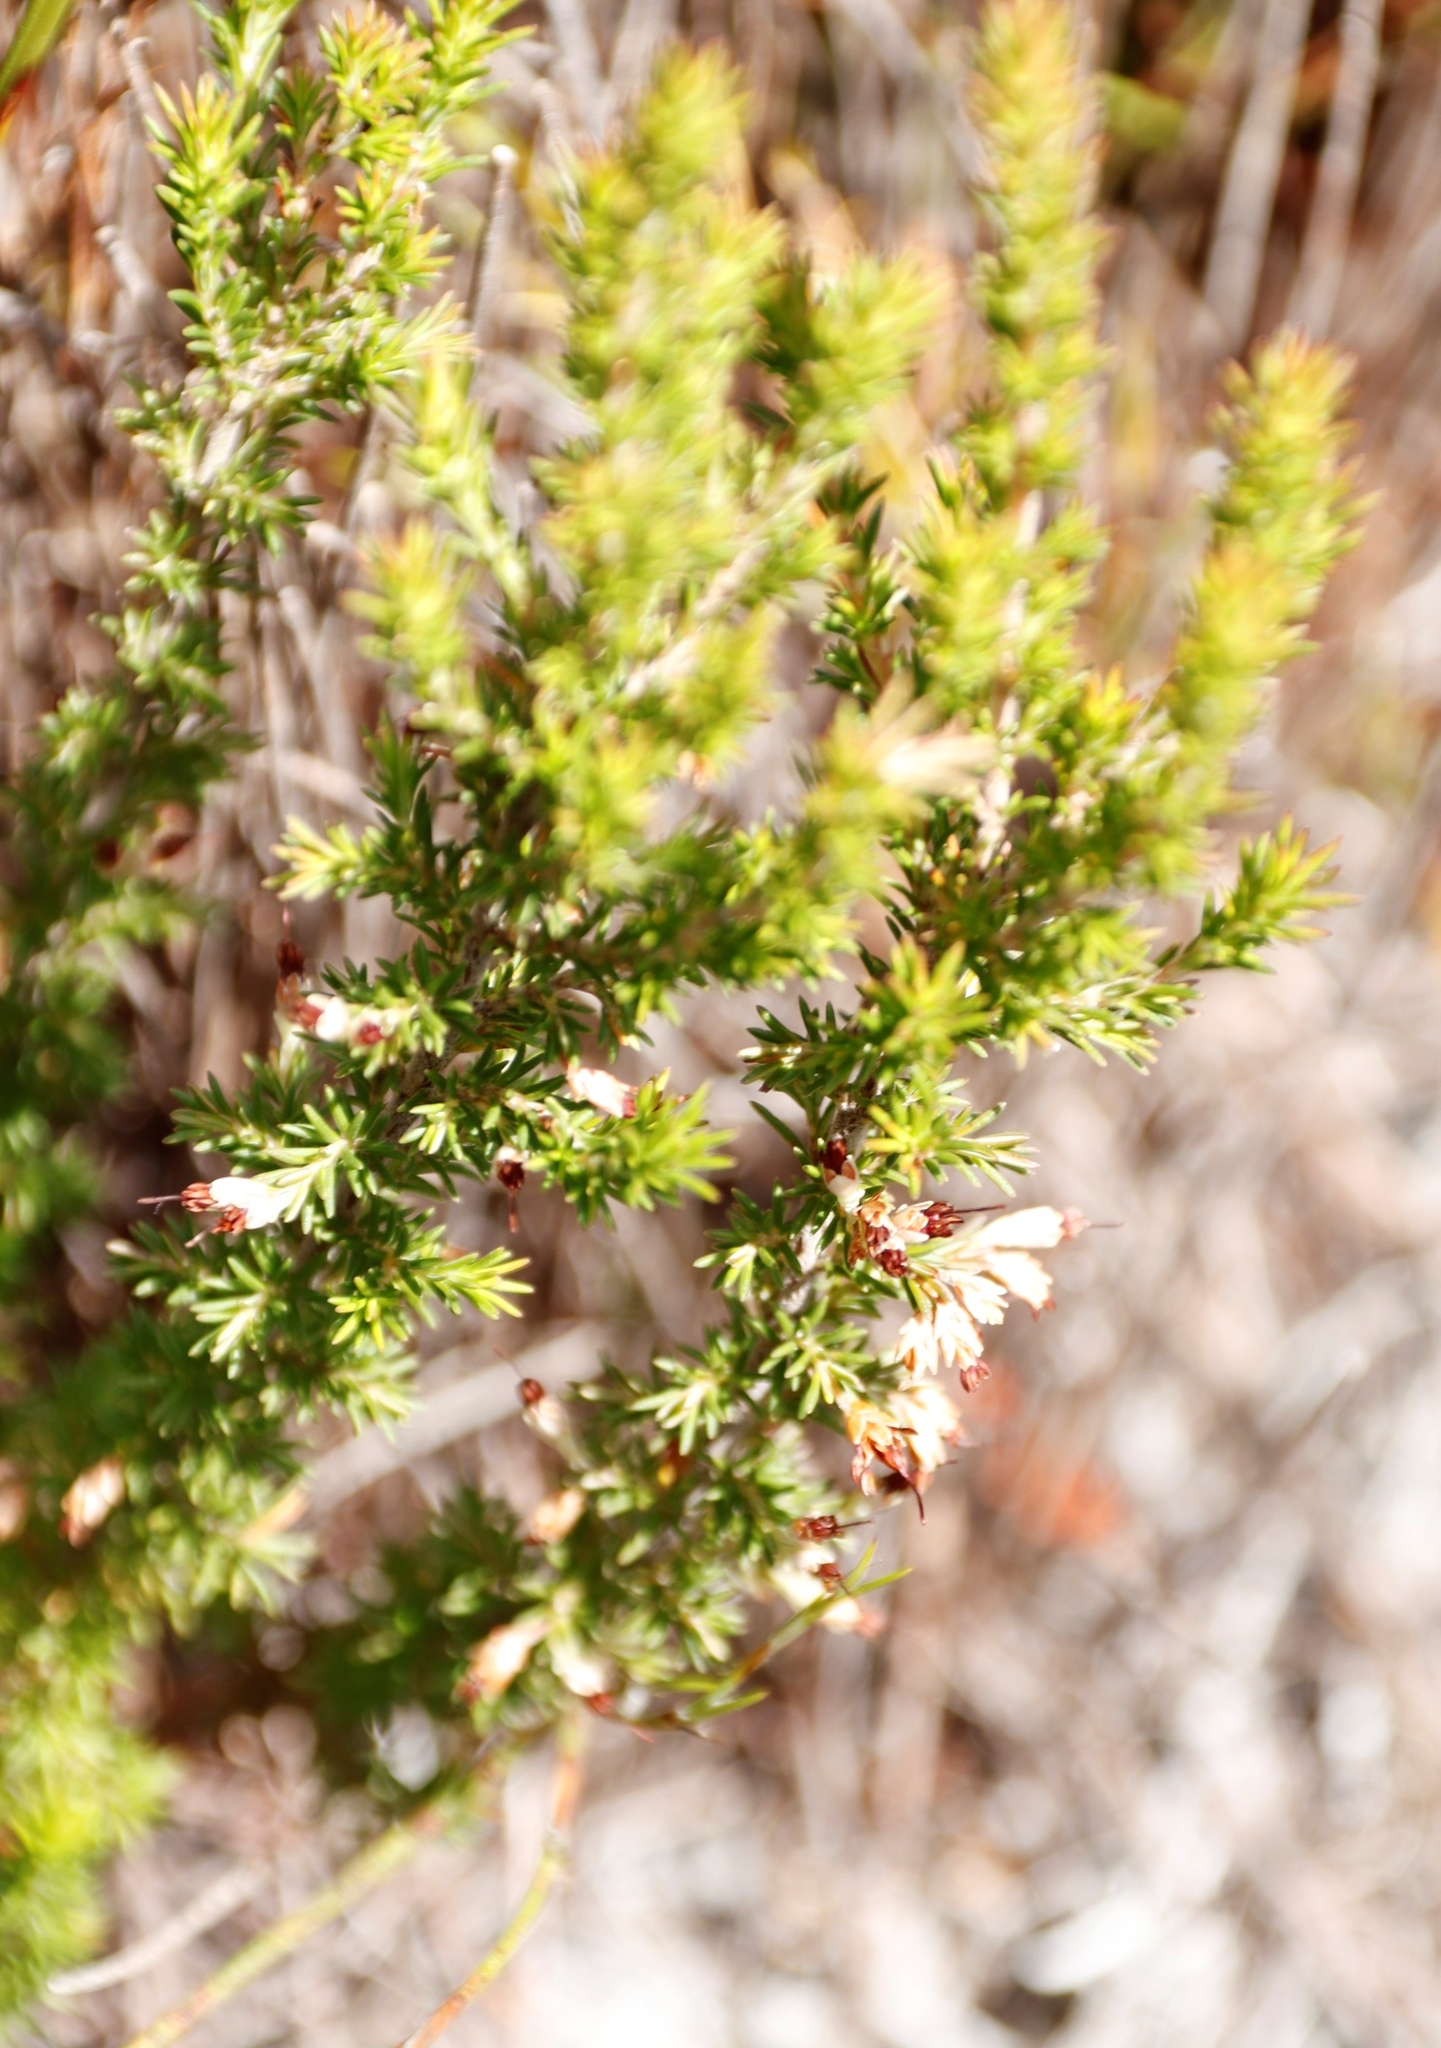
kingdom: Plantae
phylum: Tracheophyta
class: Magnoliopsida
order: Ericales
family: Ericaceae
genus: Erica
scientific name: Erica imbricata
